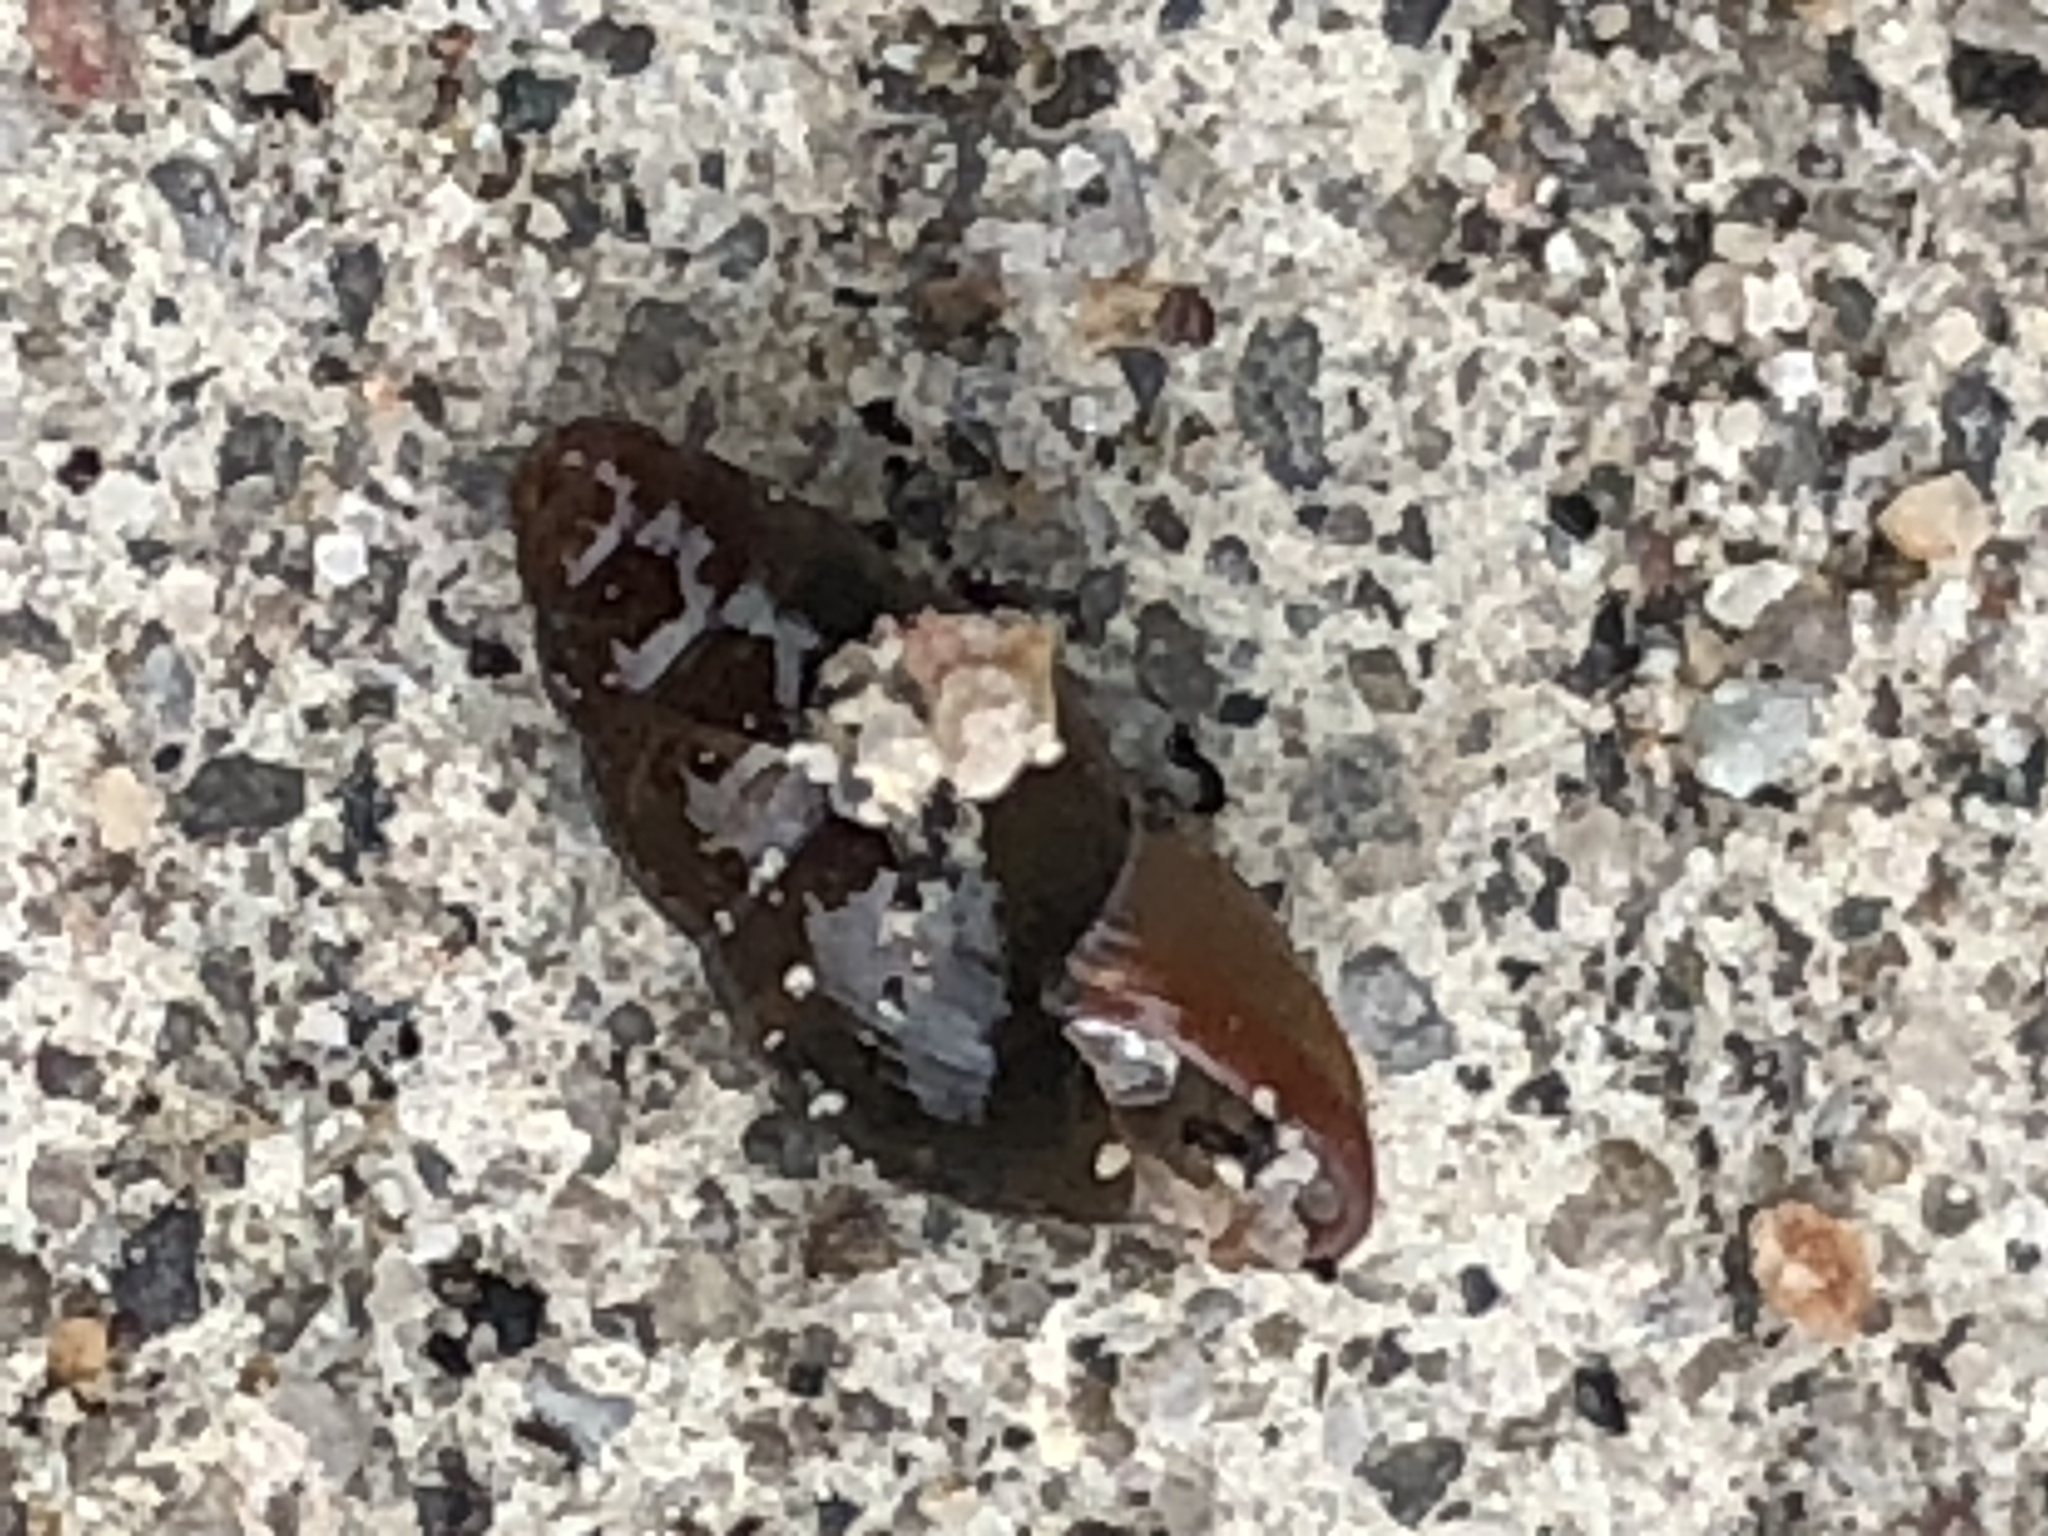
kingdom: Animalia
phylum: Mollusca
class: Gastropoda
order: Stylommatophora
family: Cochlicopidae
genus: Cochlicopa
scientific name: Cochlicopa lubrica
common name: Glossy pillar snail
